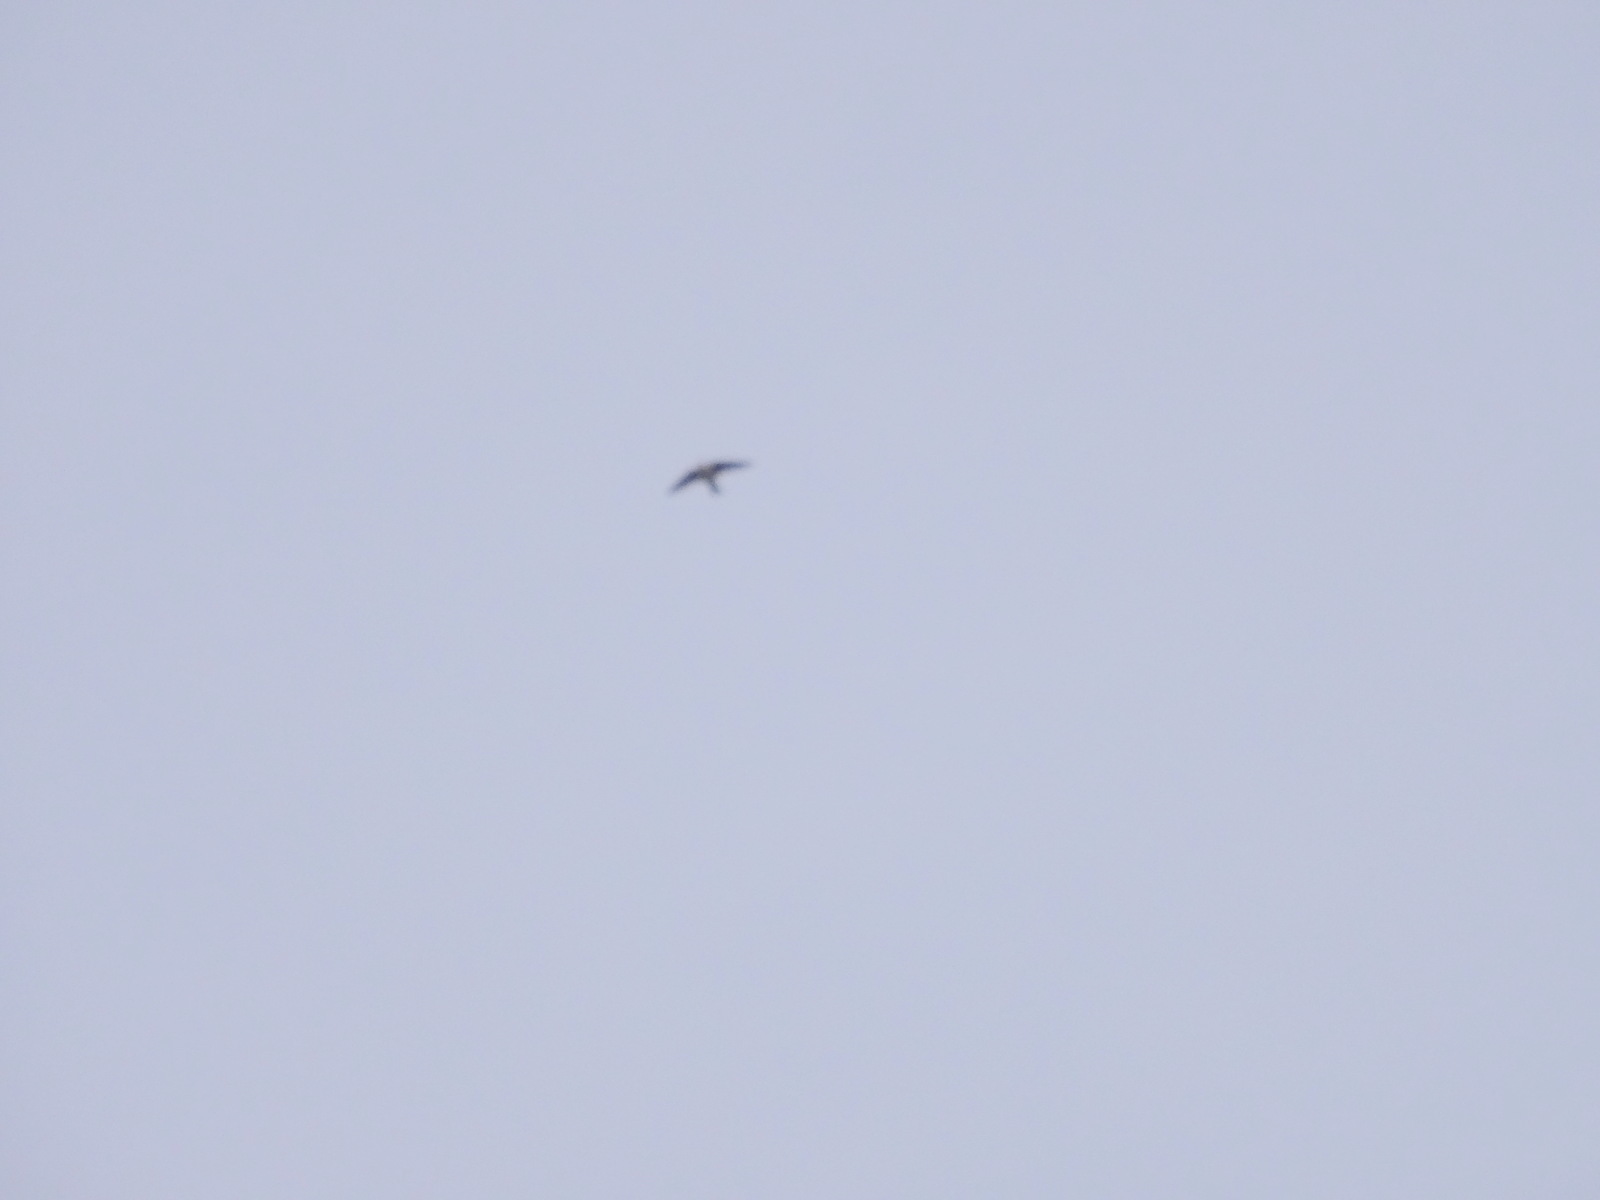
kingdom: Animalia
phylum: Chordata
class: Aves
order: Apodiformes
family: Apodidae
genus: Aeronautes
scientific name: Aeronautes saxatalis
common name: White-throated swift
